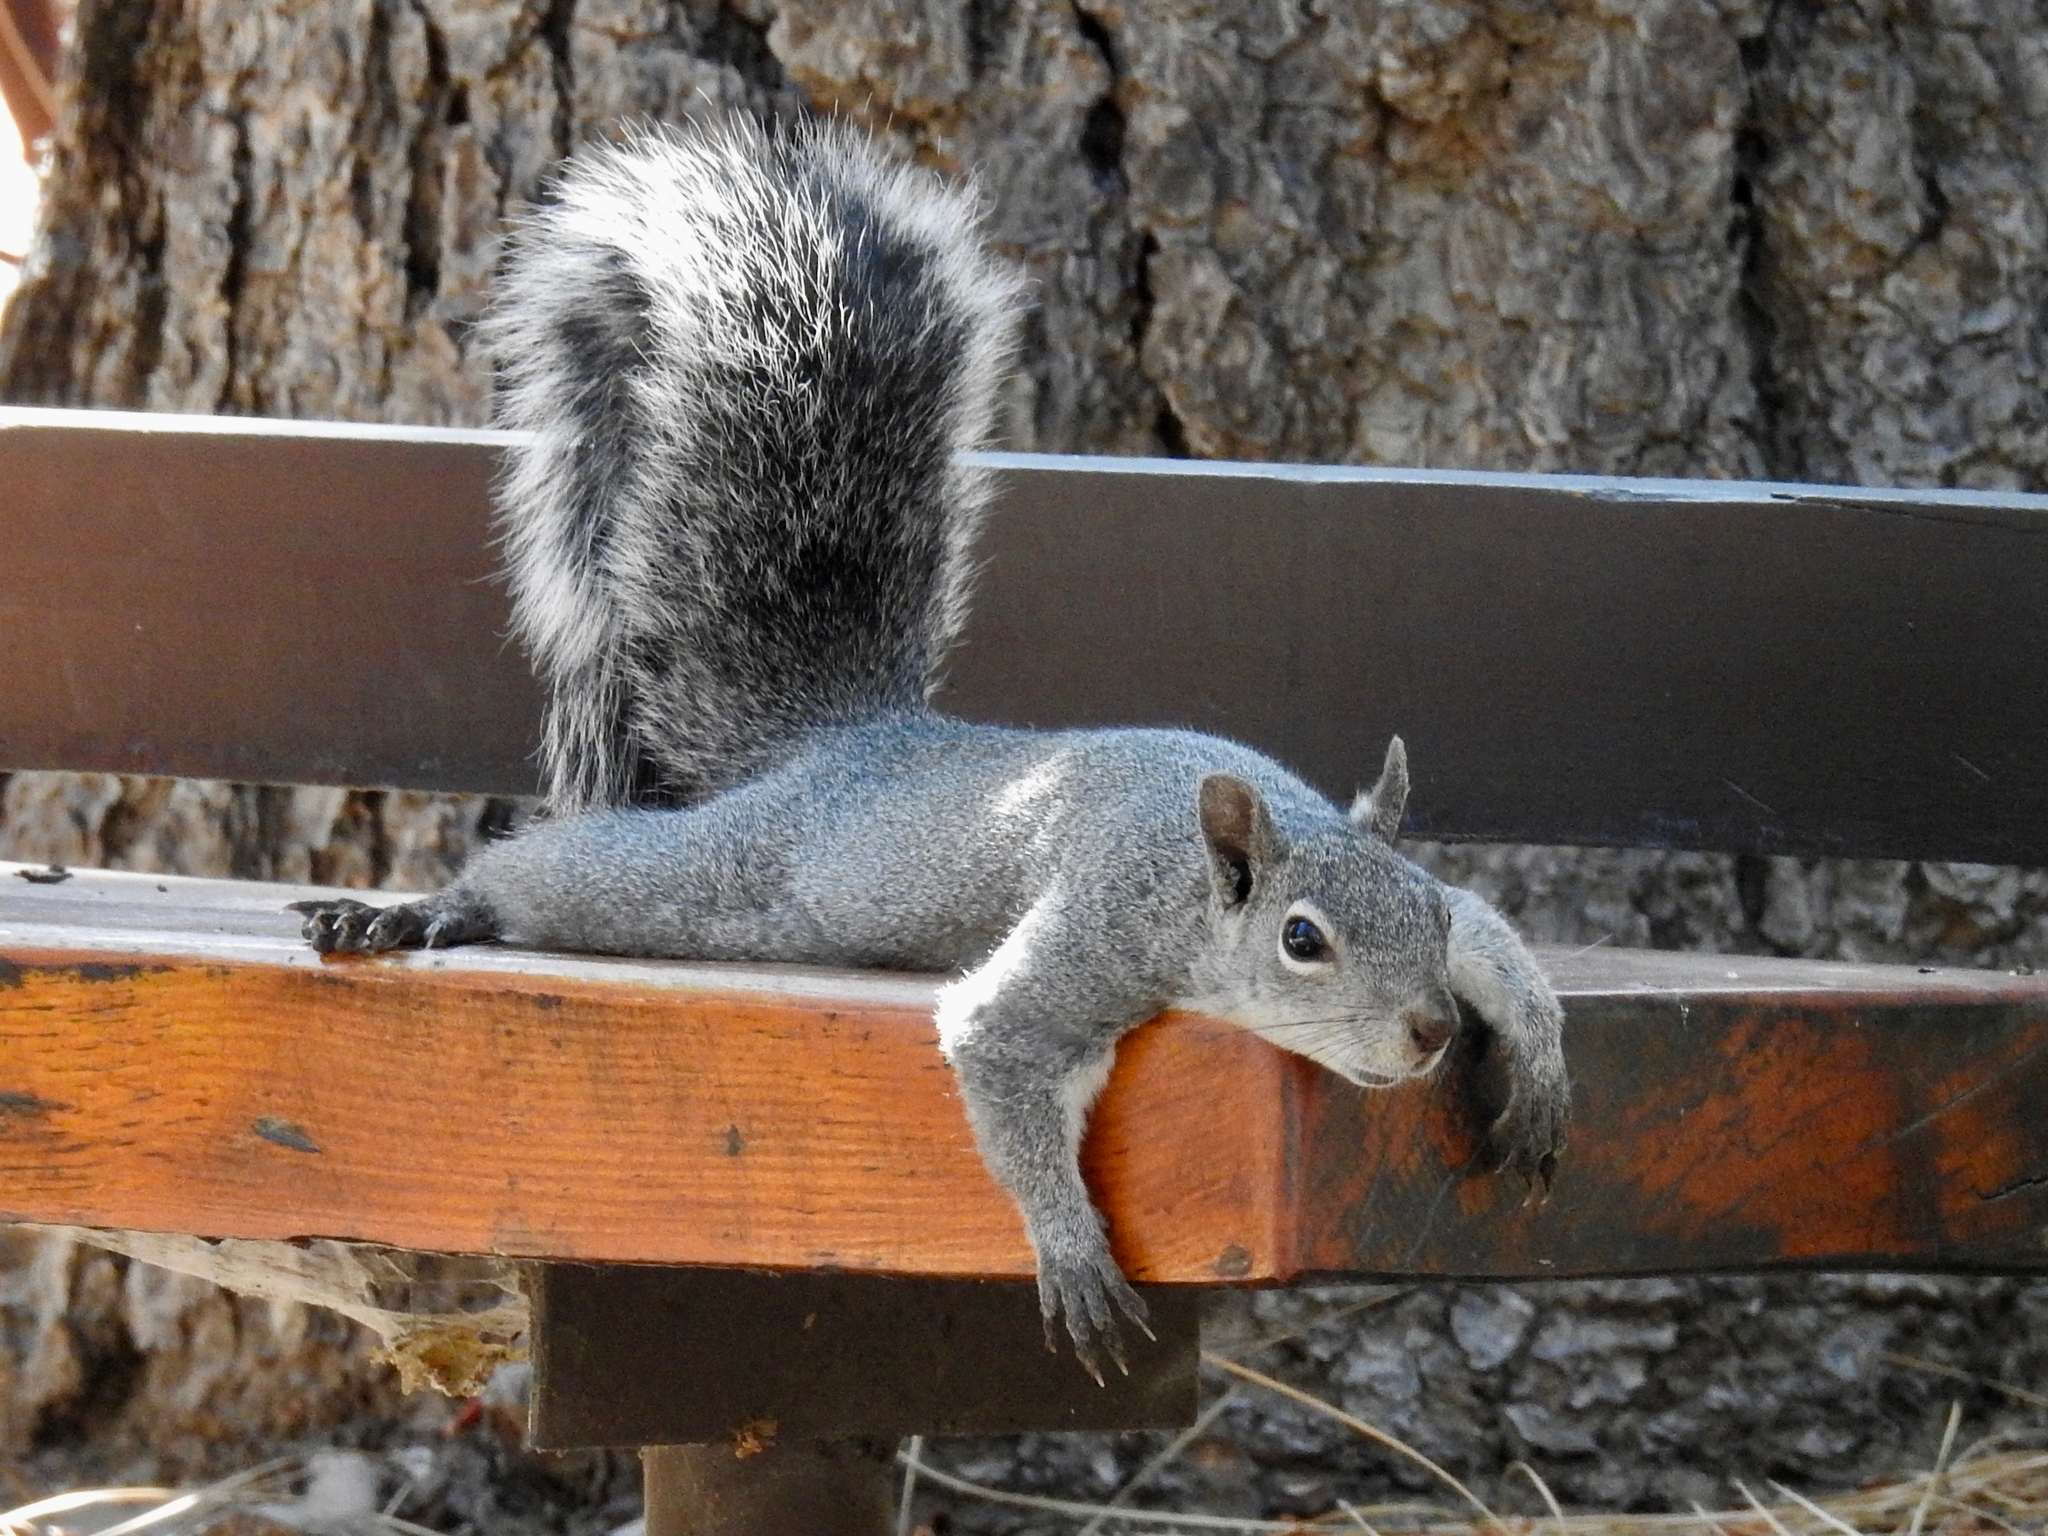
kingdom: Animalia
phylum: Chordata
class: Mammalia
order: Rodentia
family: Sciuridae
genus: Sciurus
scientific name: Sciurus griseus
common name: Western gray squirrel
